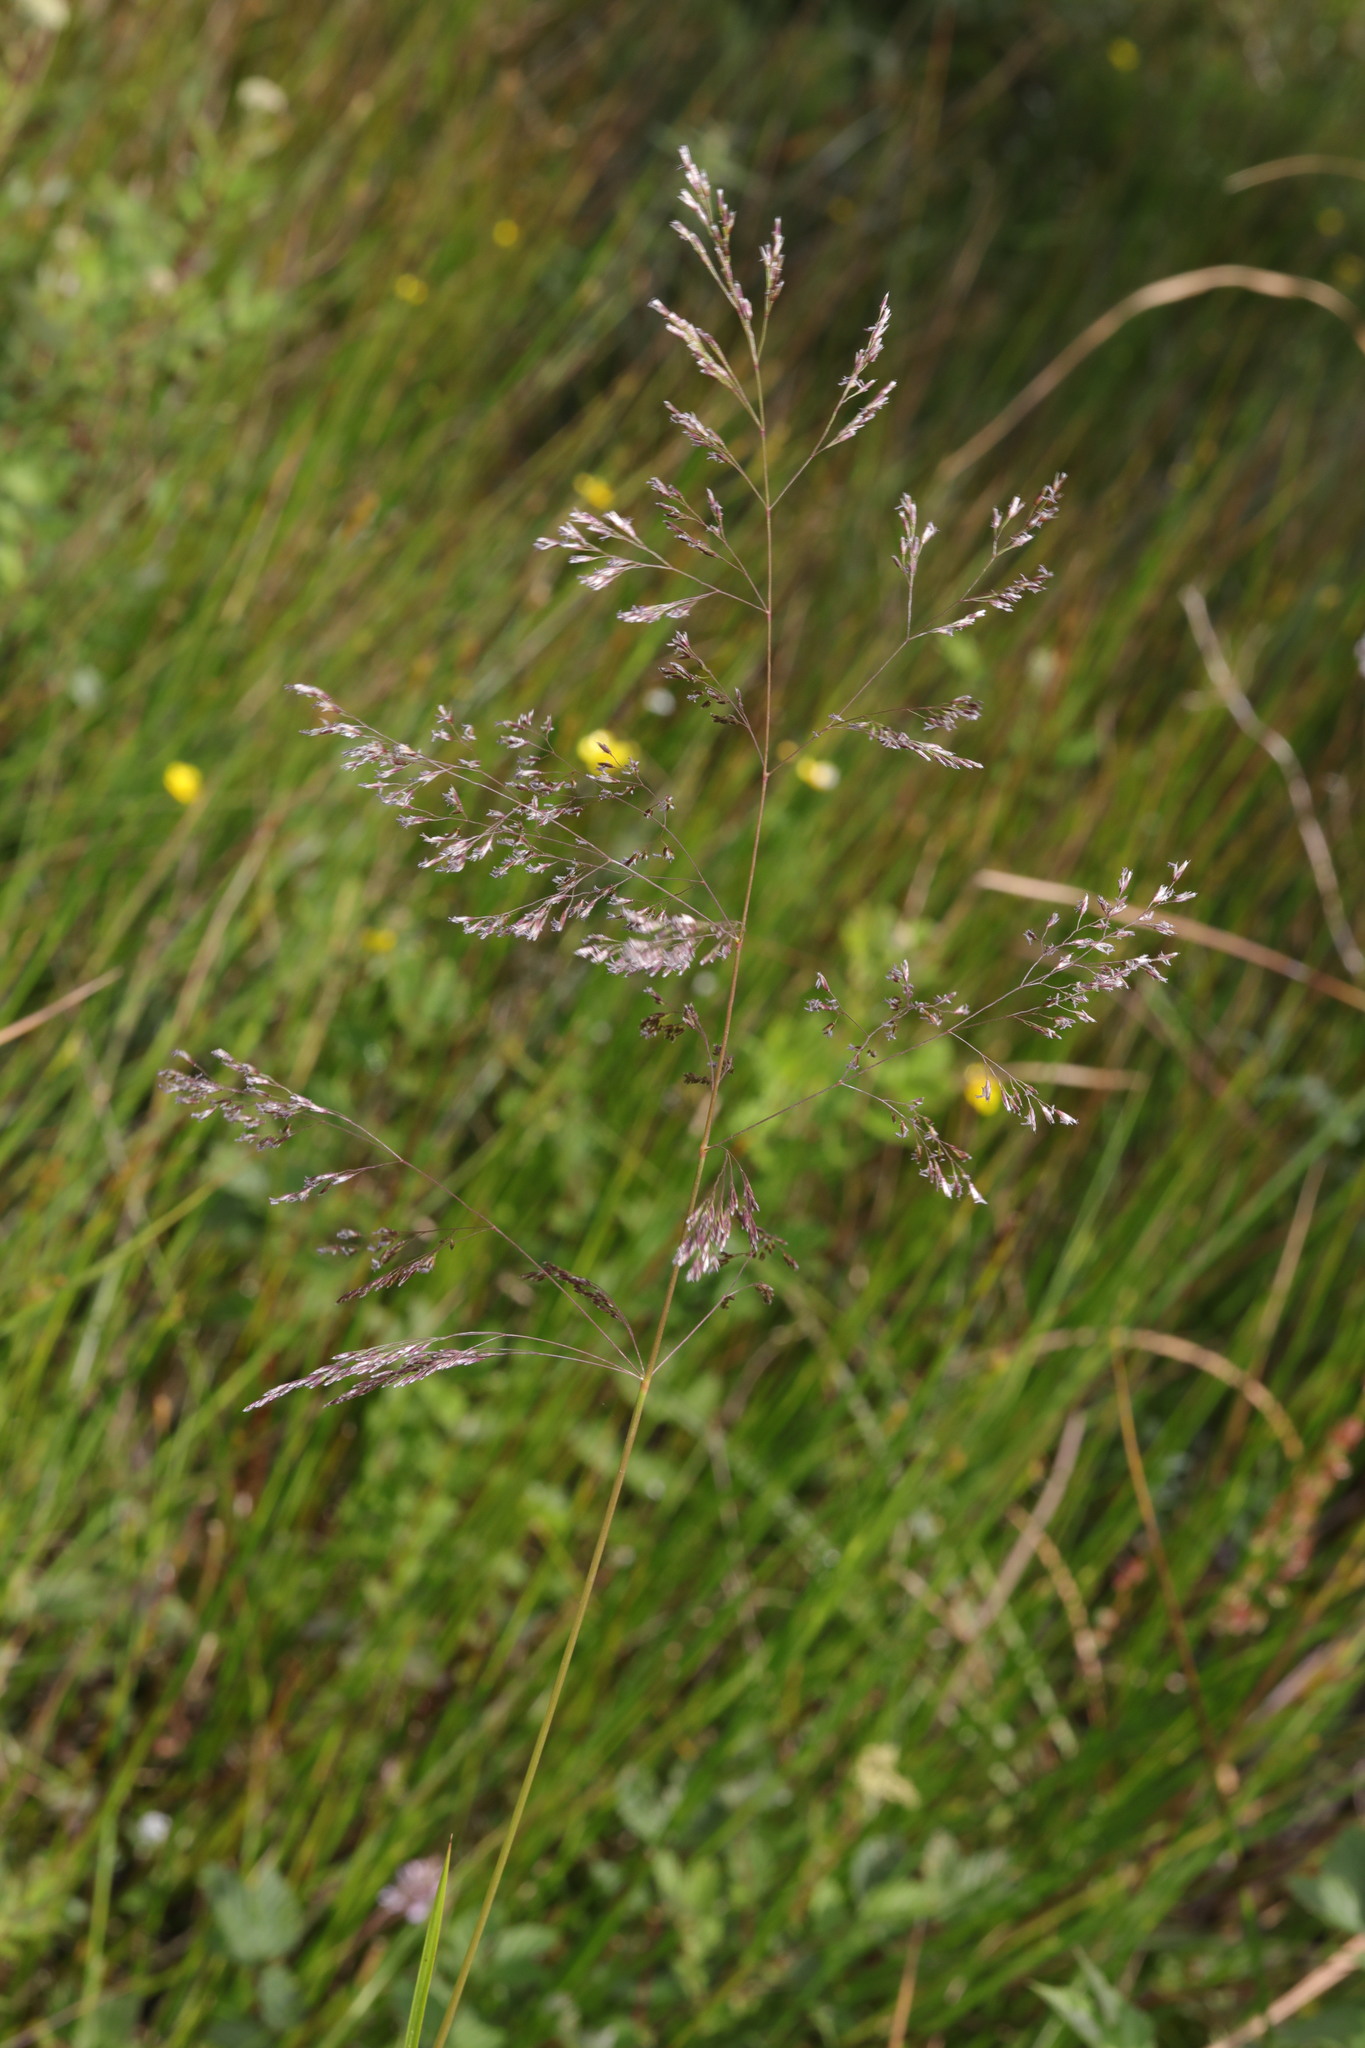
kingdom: Plantae
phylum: Tracheophyta
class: Liliopsida
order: Poales
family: Poaceae
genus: Deschampsia
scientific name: Deschampsia cespitosa
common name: Tufted hair-grass
